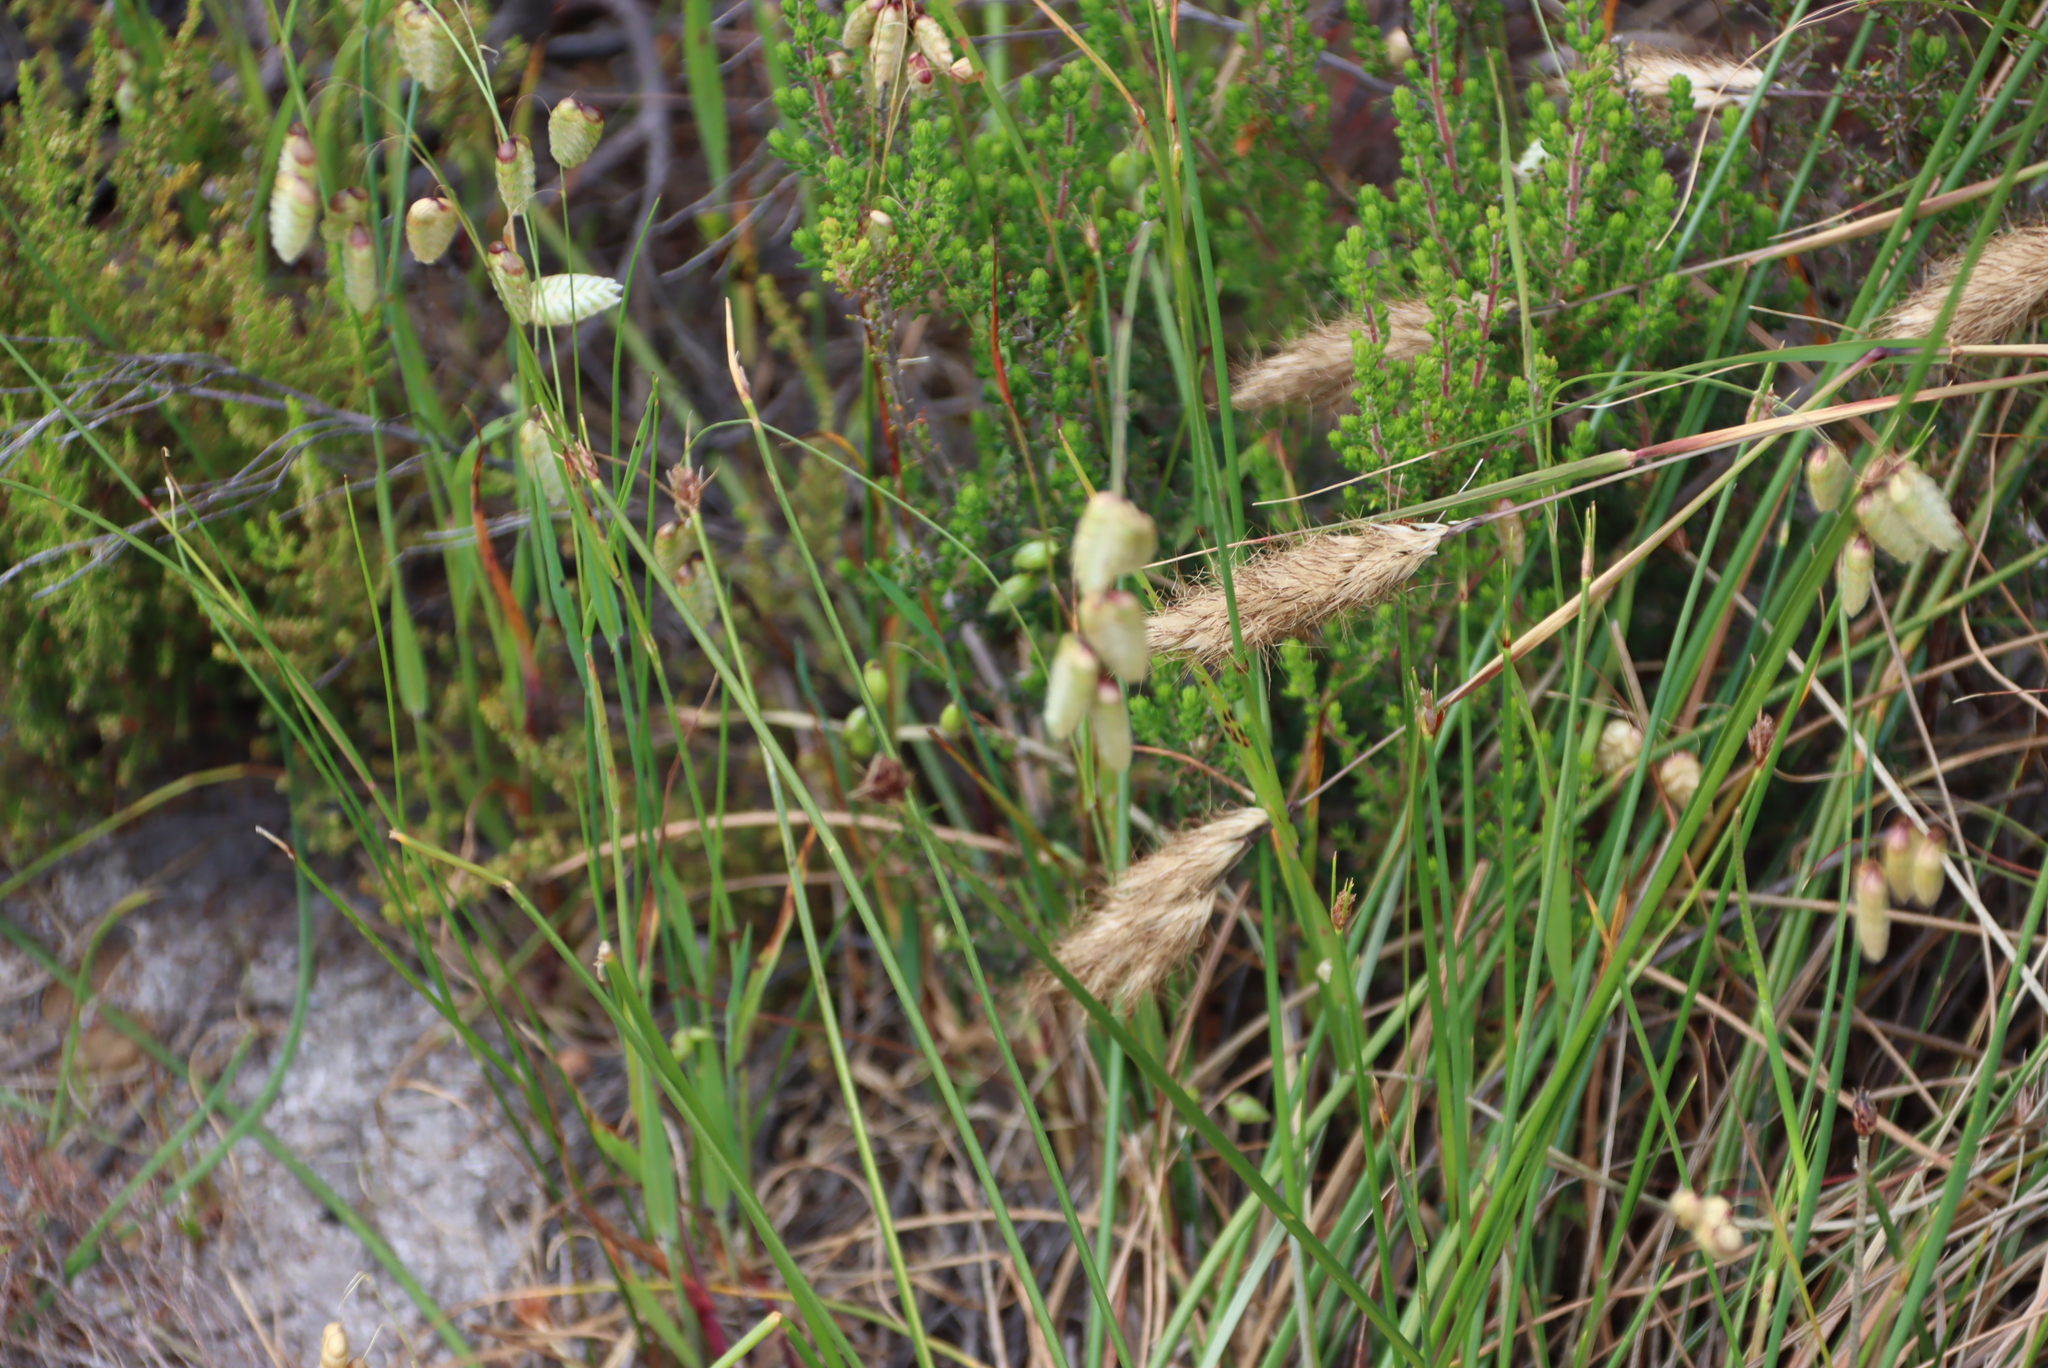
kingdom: Plantae
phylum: Tracheophyta
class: Liliopsida
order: Poales
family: Poaceae
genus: Briza
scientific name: Briza maxima
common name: Big quakinggrass
